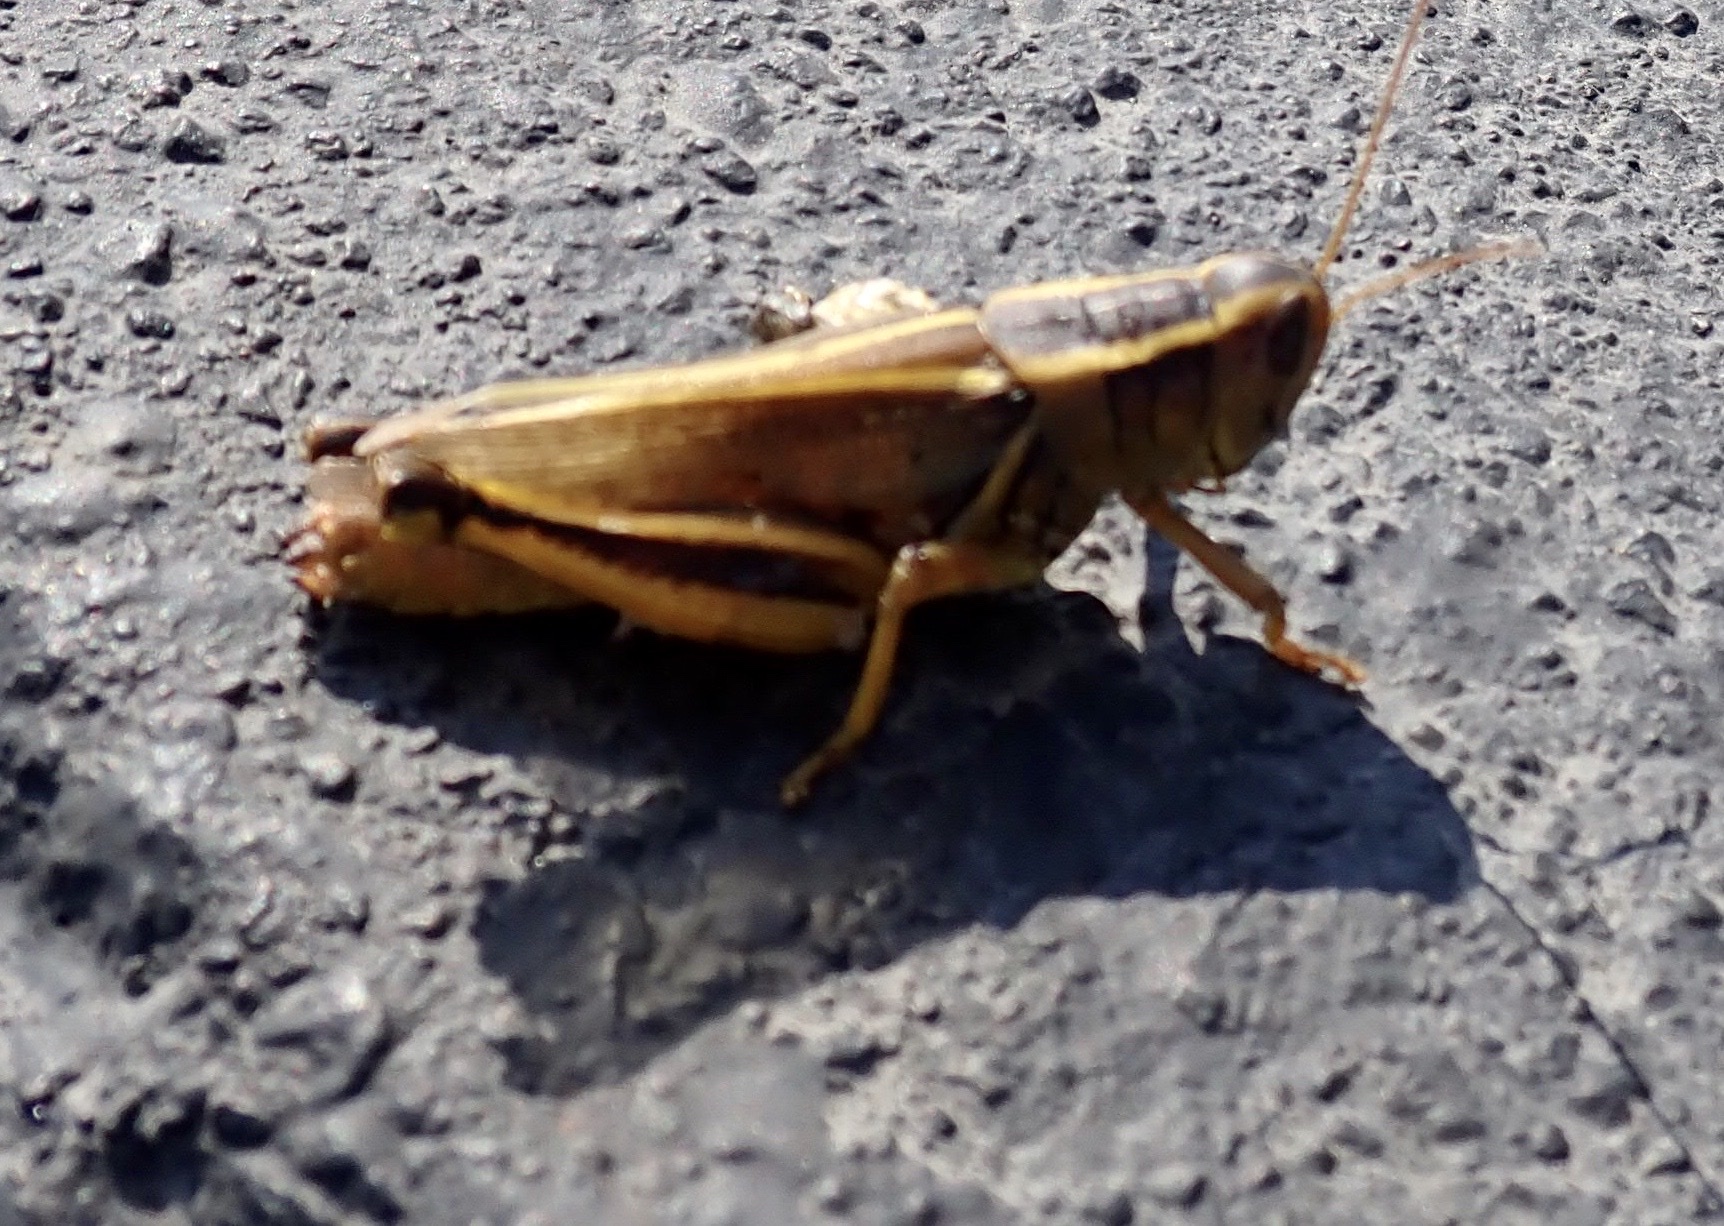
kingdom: Animalia
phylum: Arthropoda
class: Insecta
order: Orthoptera
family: Acrididae
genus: Melanoplus
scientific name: Melanoplus bivittatus
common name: Two-striped grasshopper
